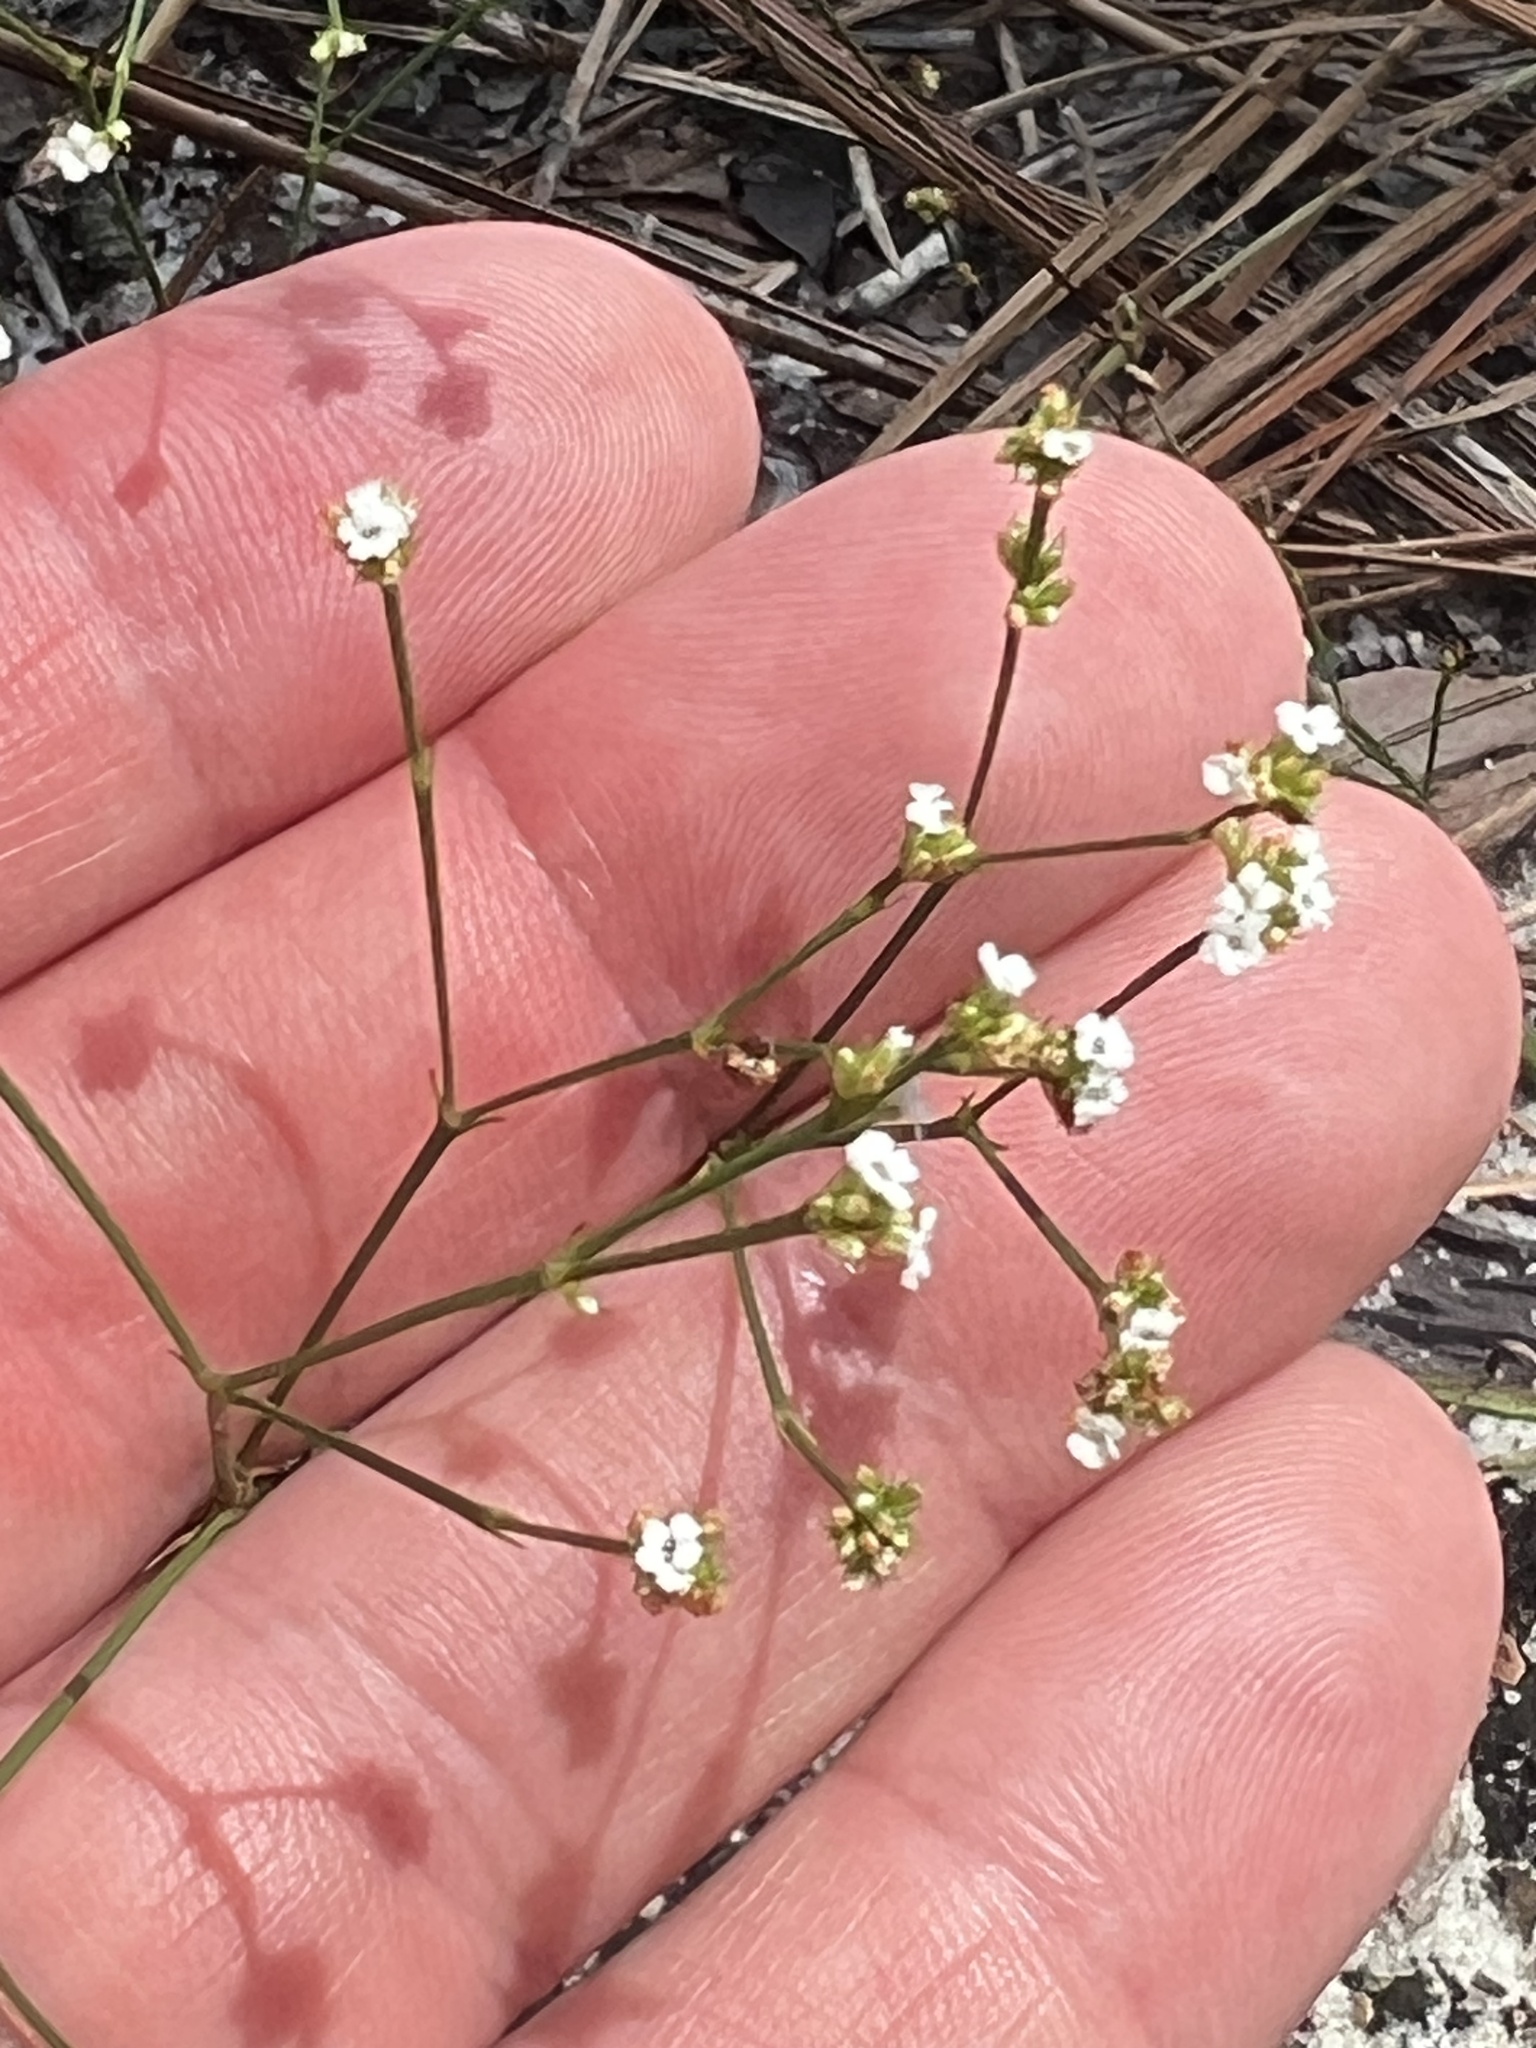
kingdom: Plantae
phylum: Tracheophyta
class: Magnoliopsida
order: Caryophyllales
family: Caryophyllaceae
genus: Stipulicida
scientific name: Stipulicida setacea
